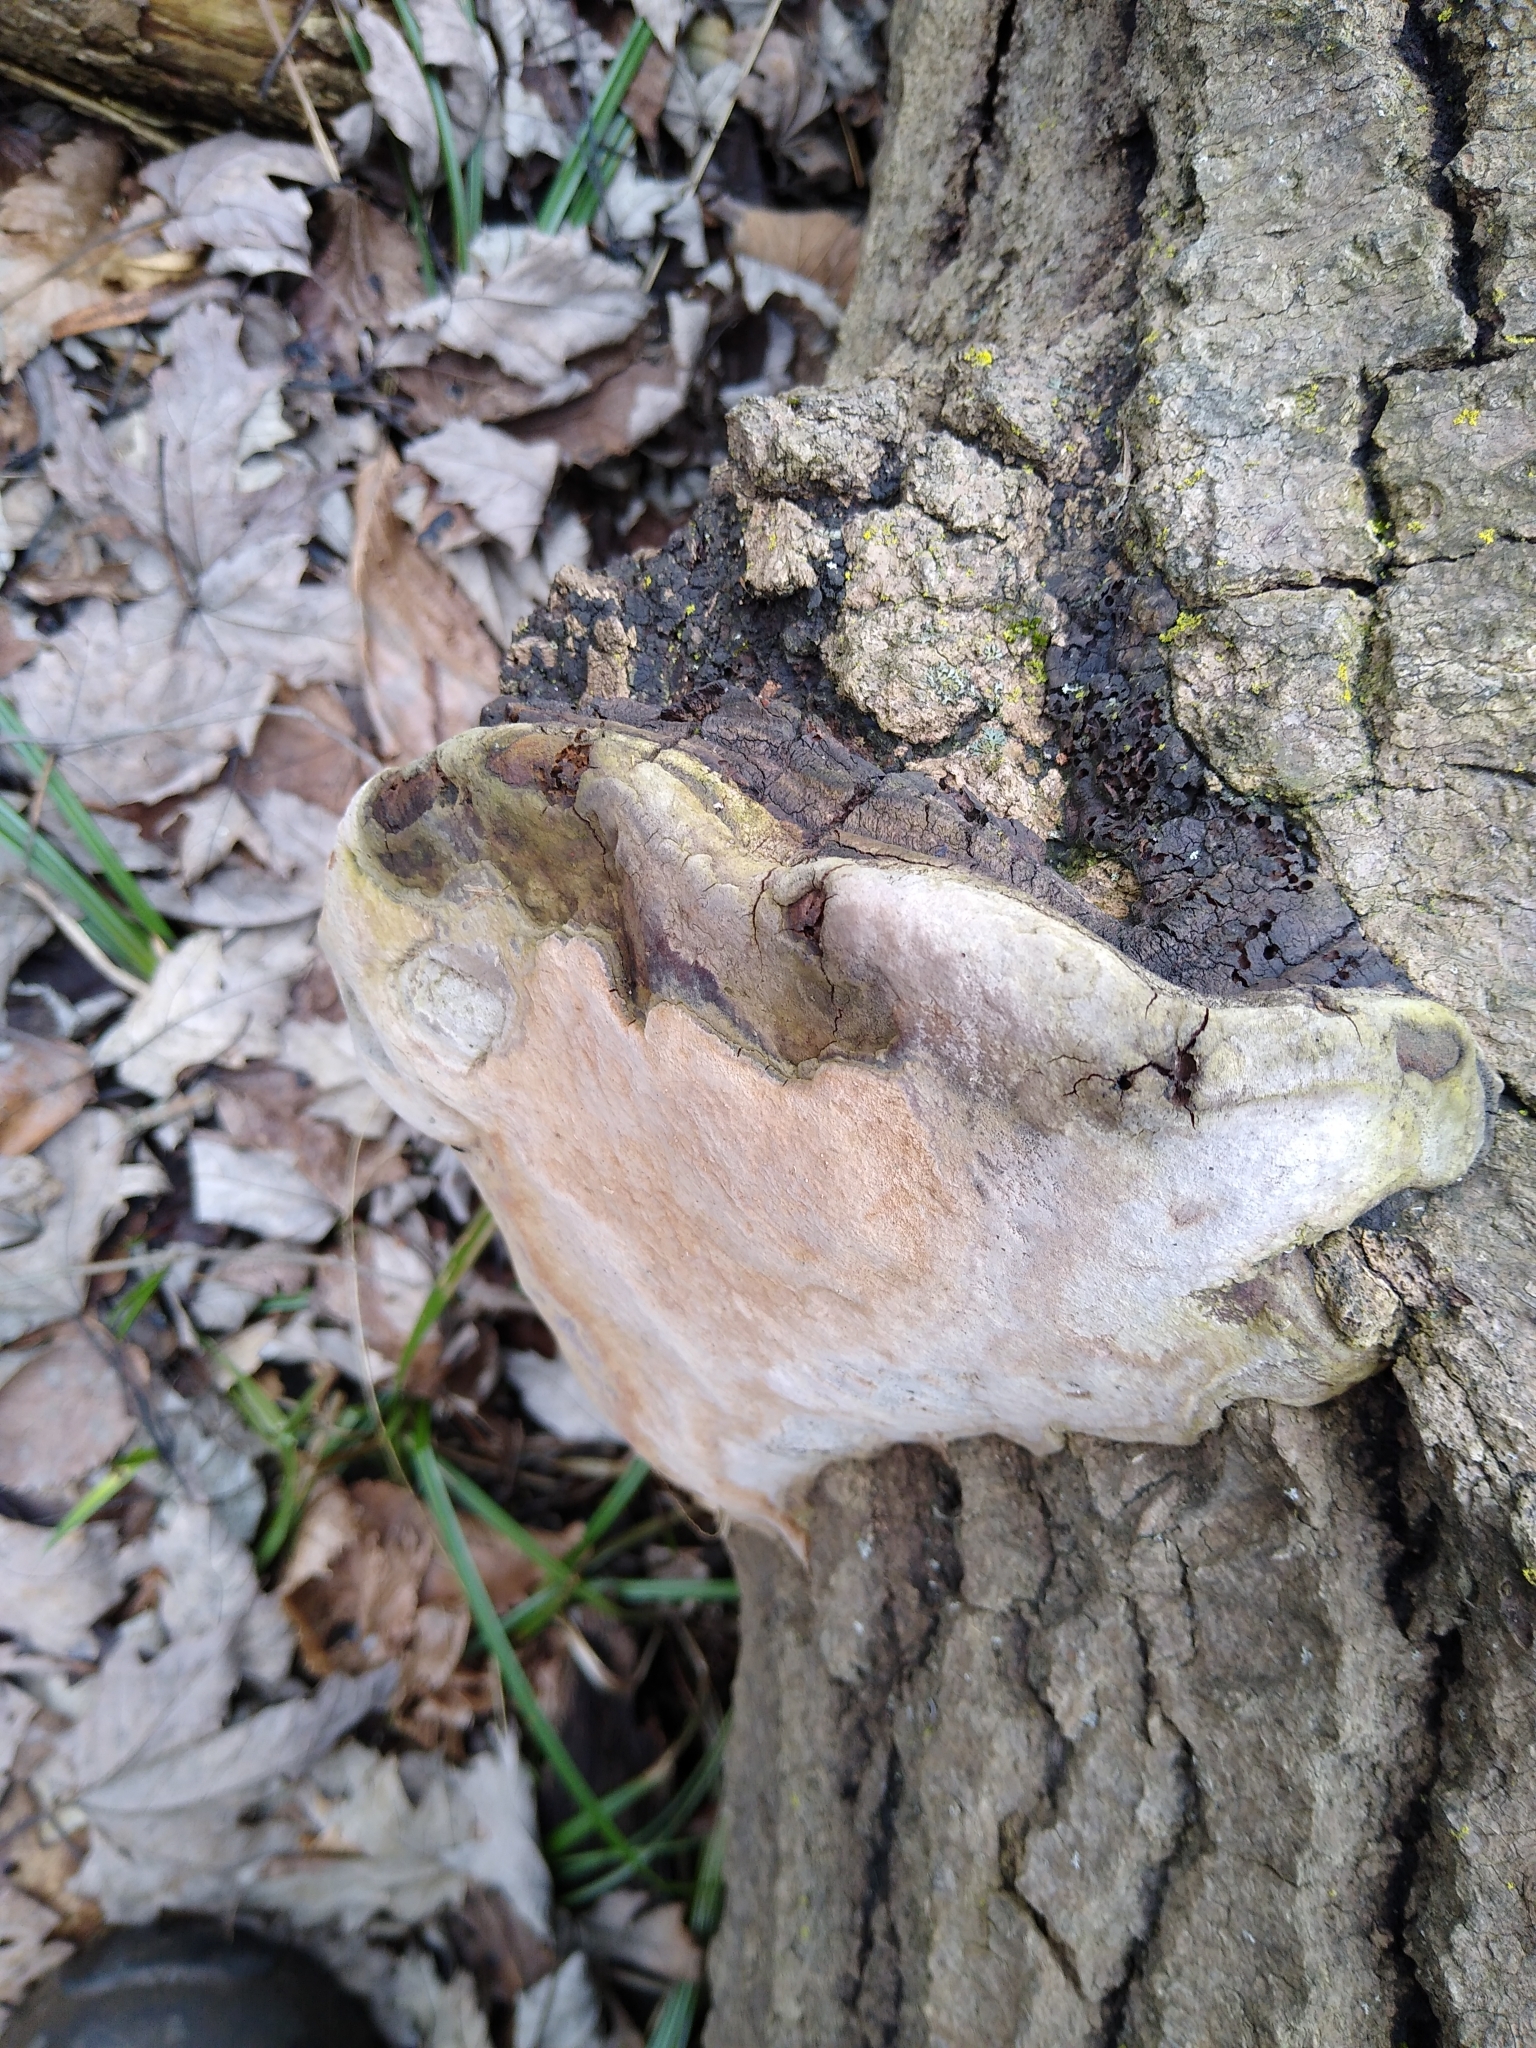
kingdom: Fungi
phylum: Basidiomycota
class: Agaricomycetes
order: Hymenochaetales
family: Hymenochaetaceae
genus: Phellinus
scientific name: Phellinus igniarius
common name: Willow bracket
